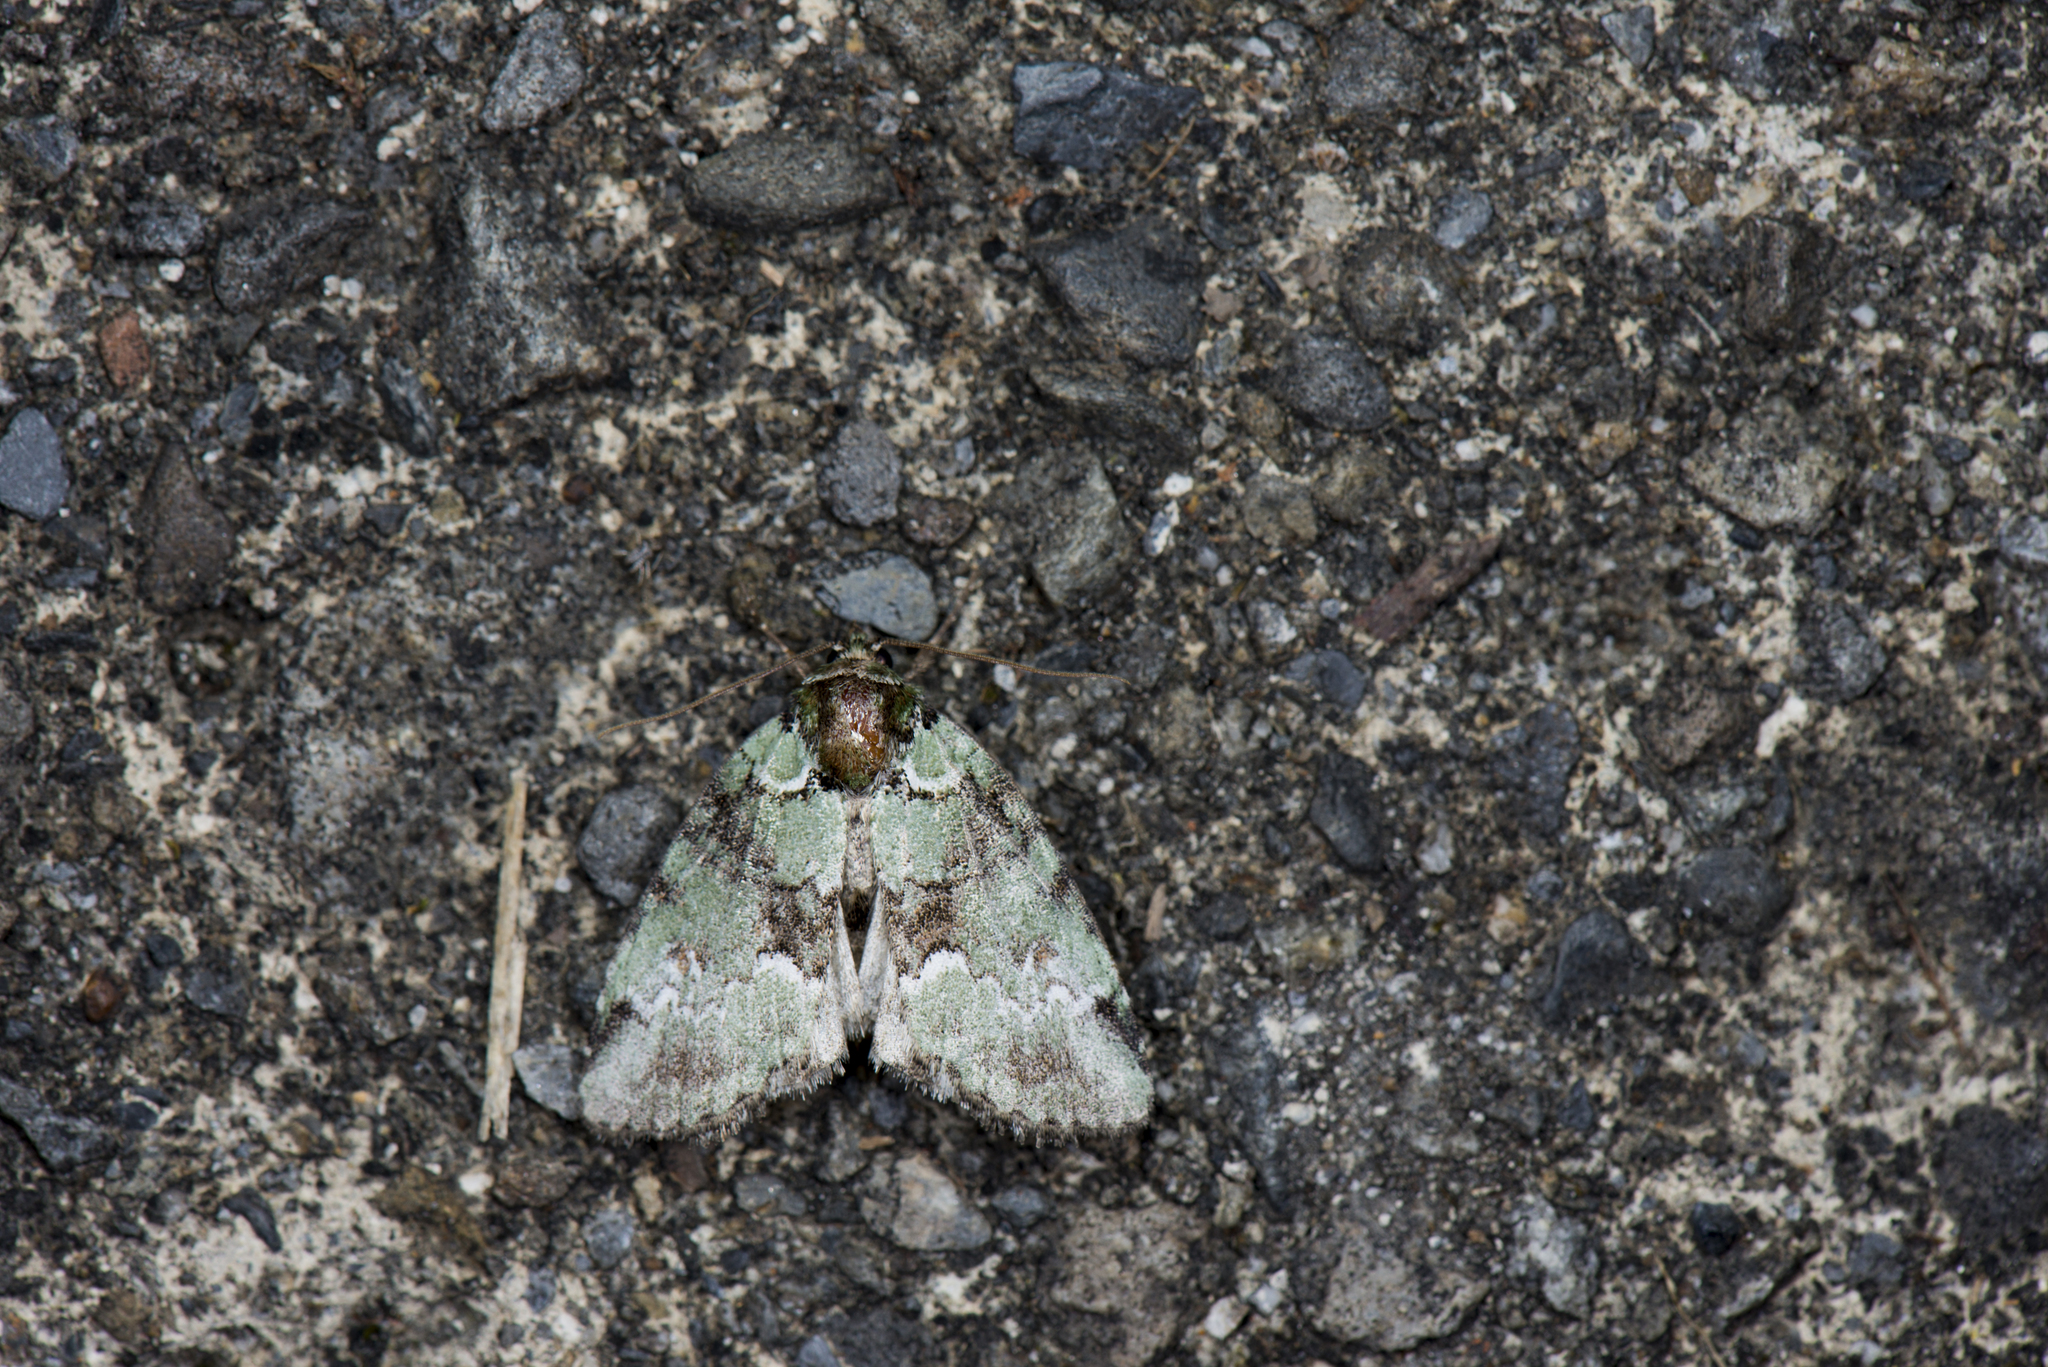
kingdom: Animalia
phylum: Arthropoda
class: Insecta
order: Lepidoptera
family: Noctuidae
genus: Conicochyta
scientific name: Conicochyta olivacea
